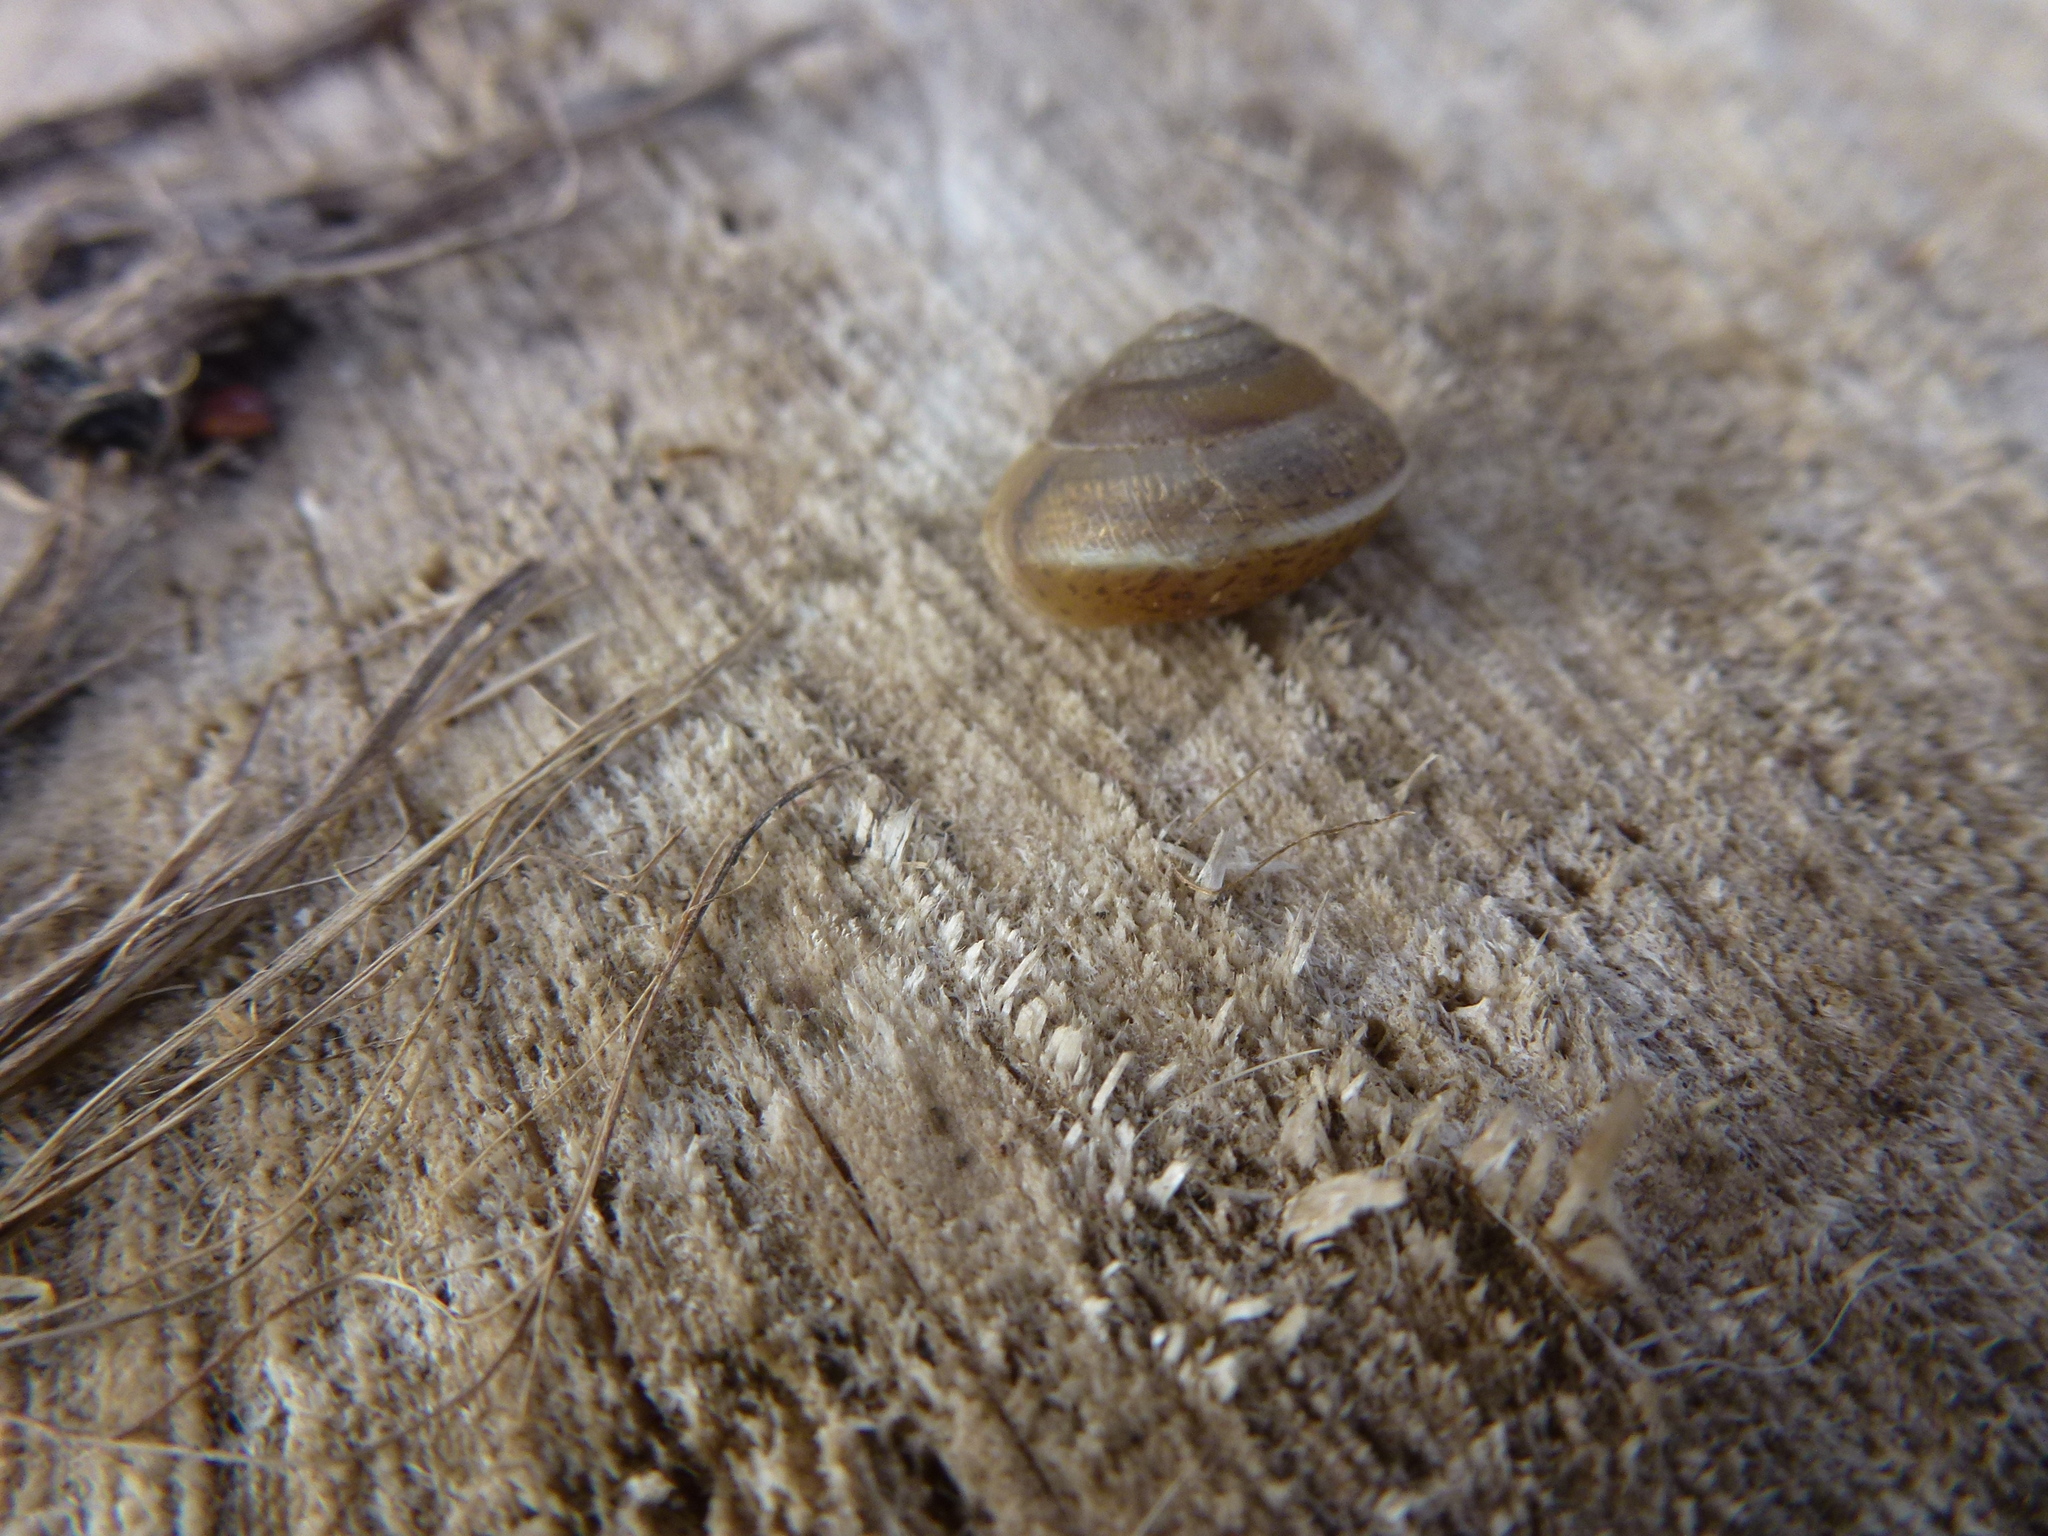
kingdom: Animalia
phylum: Mollusca
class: Gastropoda
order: Stylommatophora
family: Hygromiidae
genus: Hygromia
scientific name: Hygromia cinctella
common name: Girdled snail
